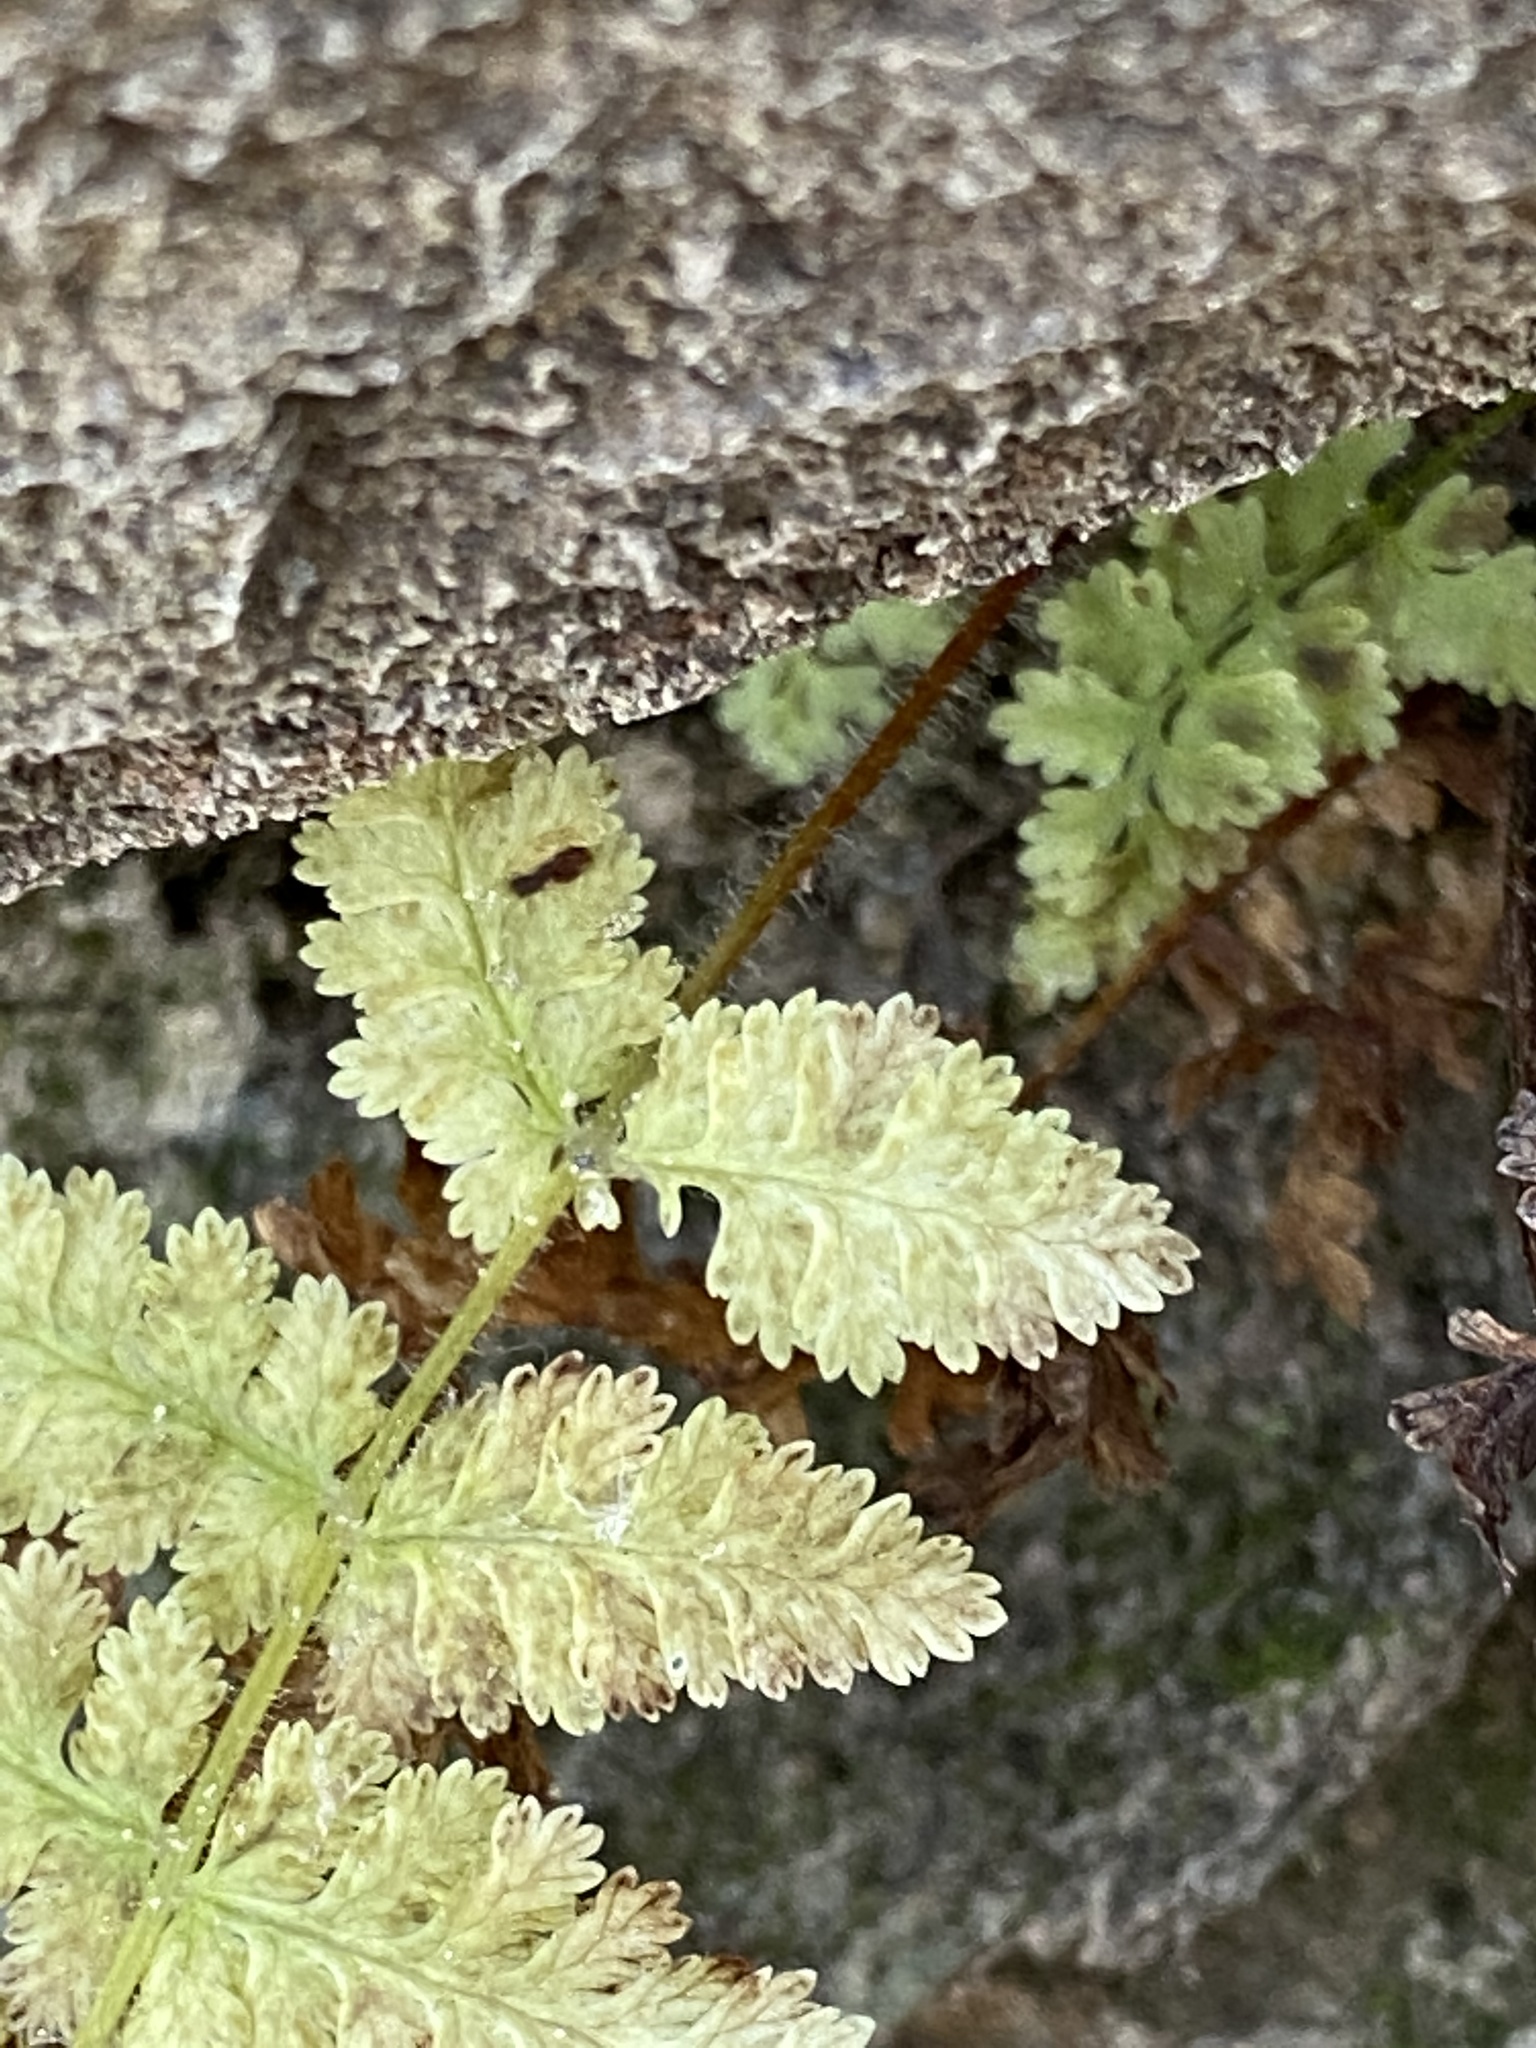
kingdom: Plantae
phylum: Tracheophyta
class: Polypodiopsida
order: Polypodiales
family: Dennstaedtiaceae
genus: Sitobolium
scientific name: Sitobolium punctilobum
